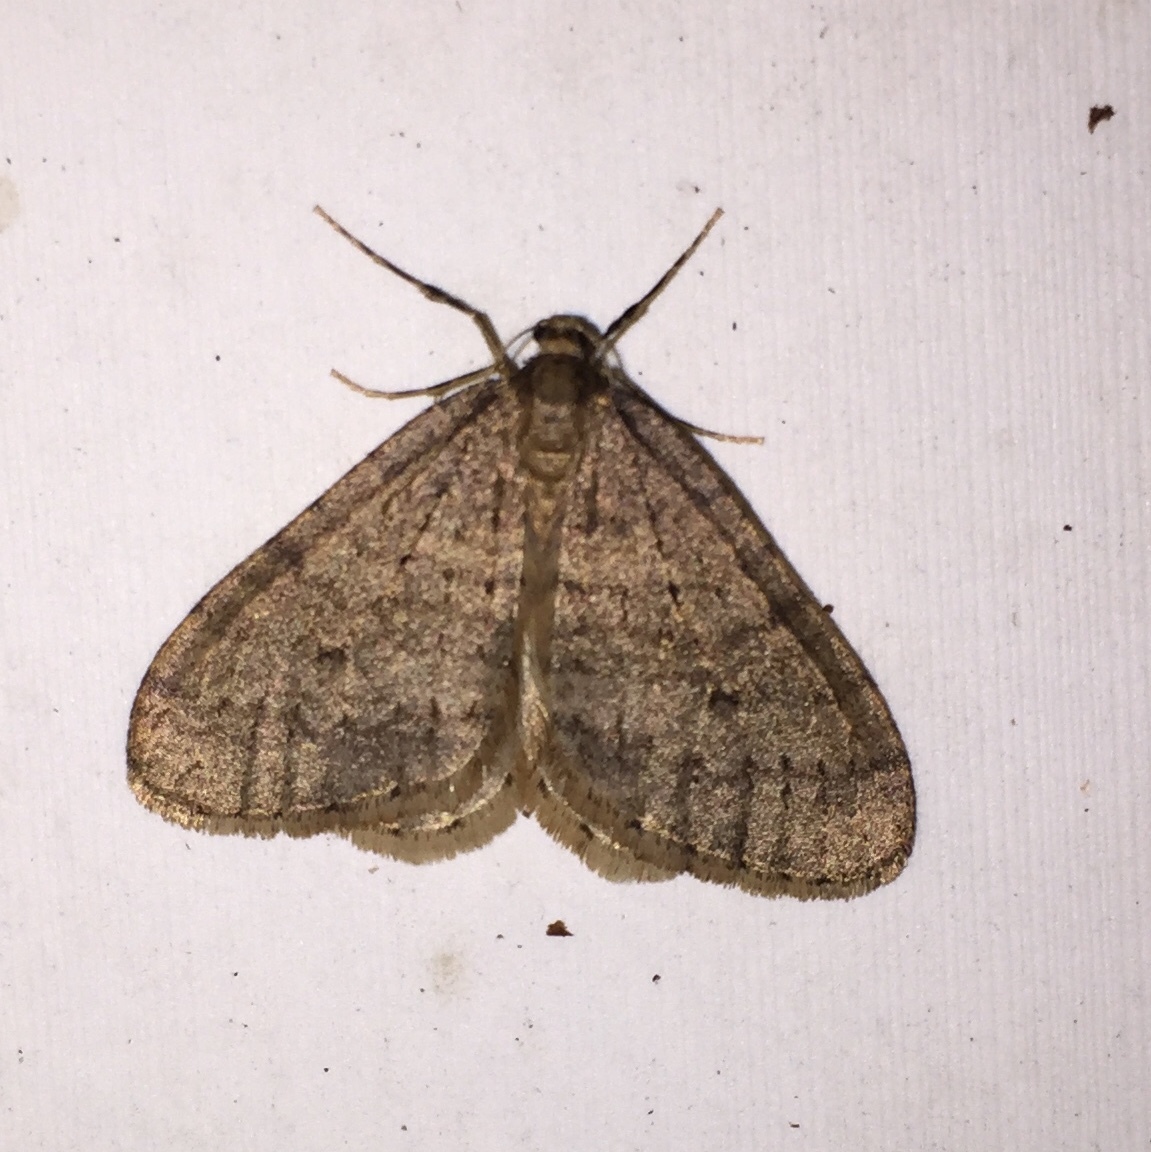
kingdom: Animalia
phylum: Arthropoda
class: Insecta
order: Lepidoptera
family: Geometridae
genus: Operophtera
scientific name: Operophtera brumata
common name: Winter moth
